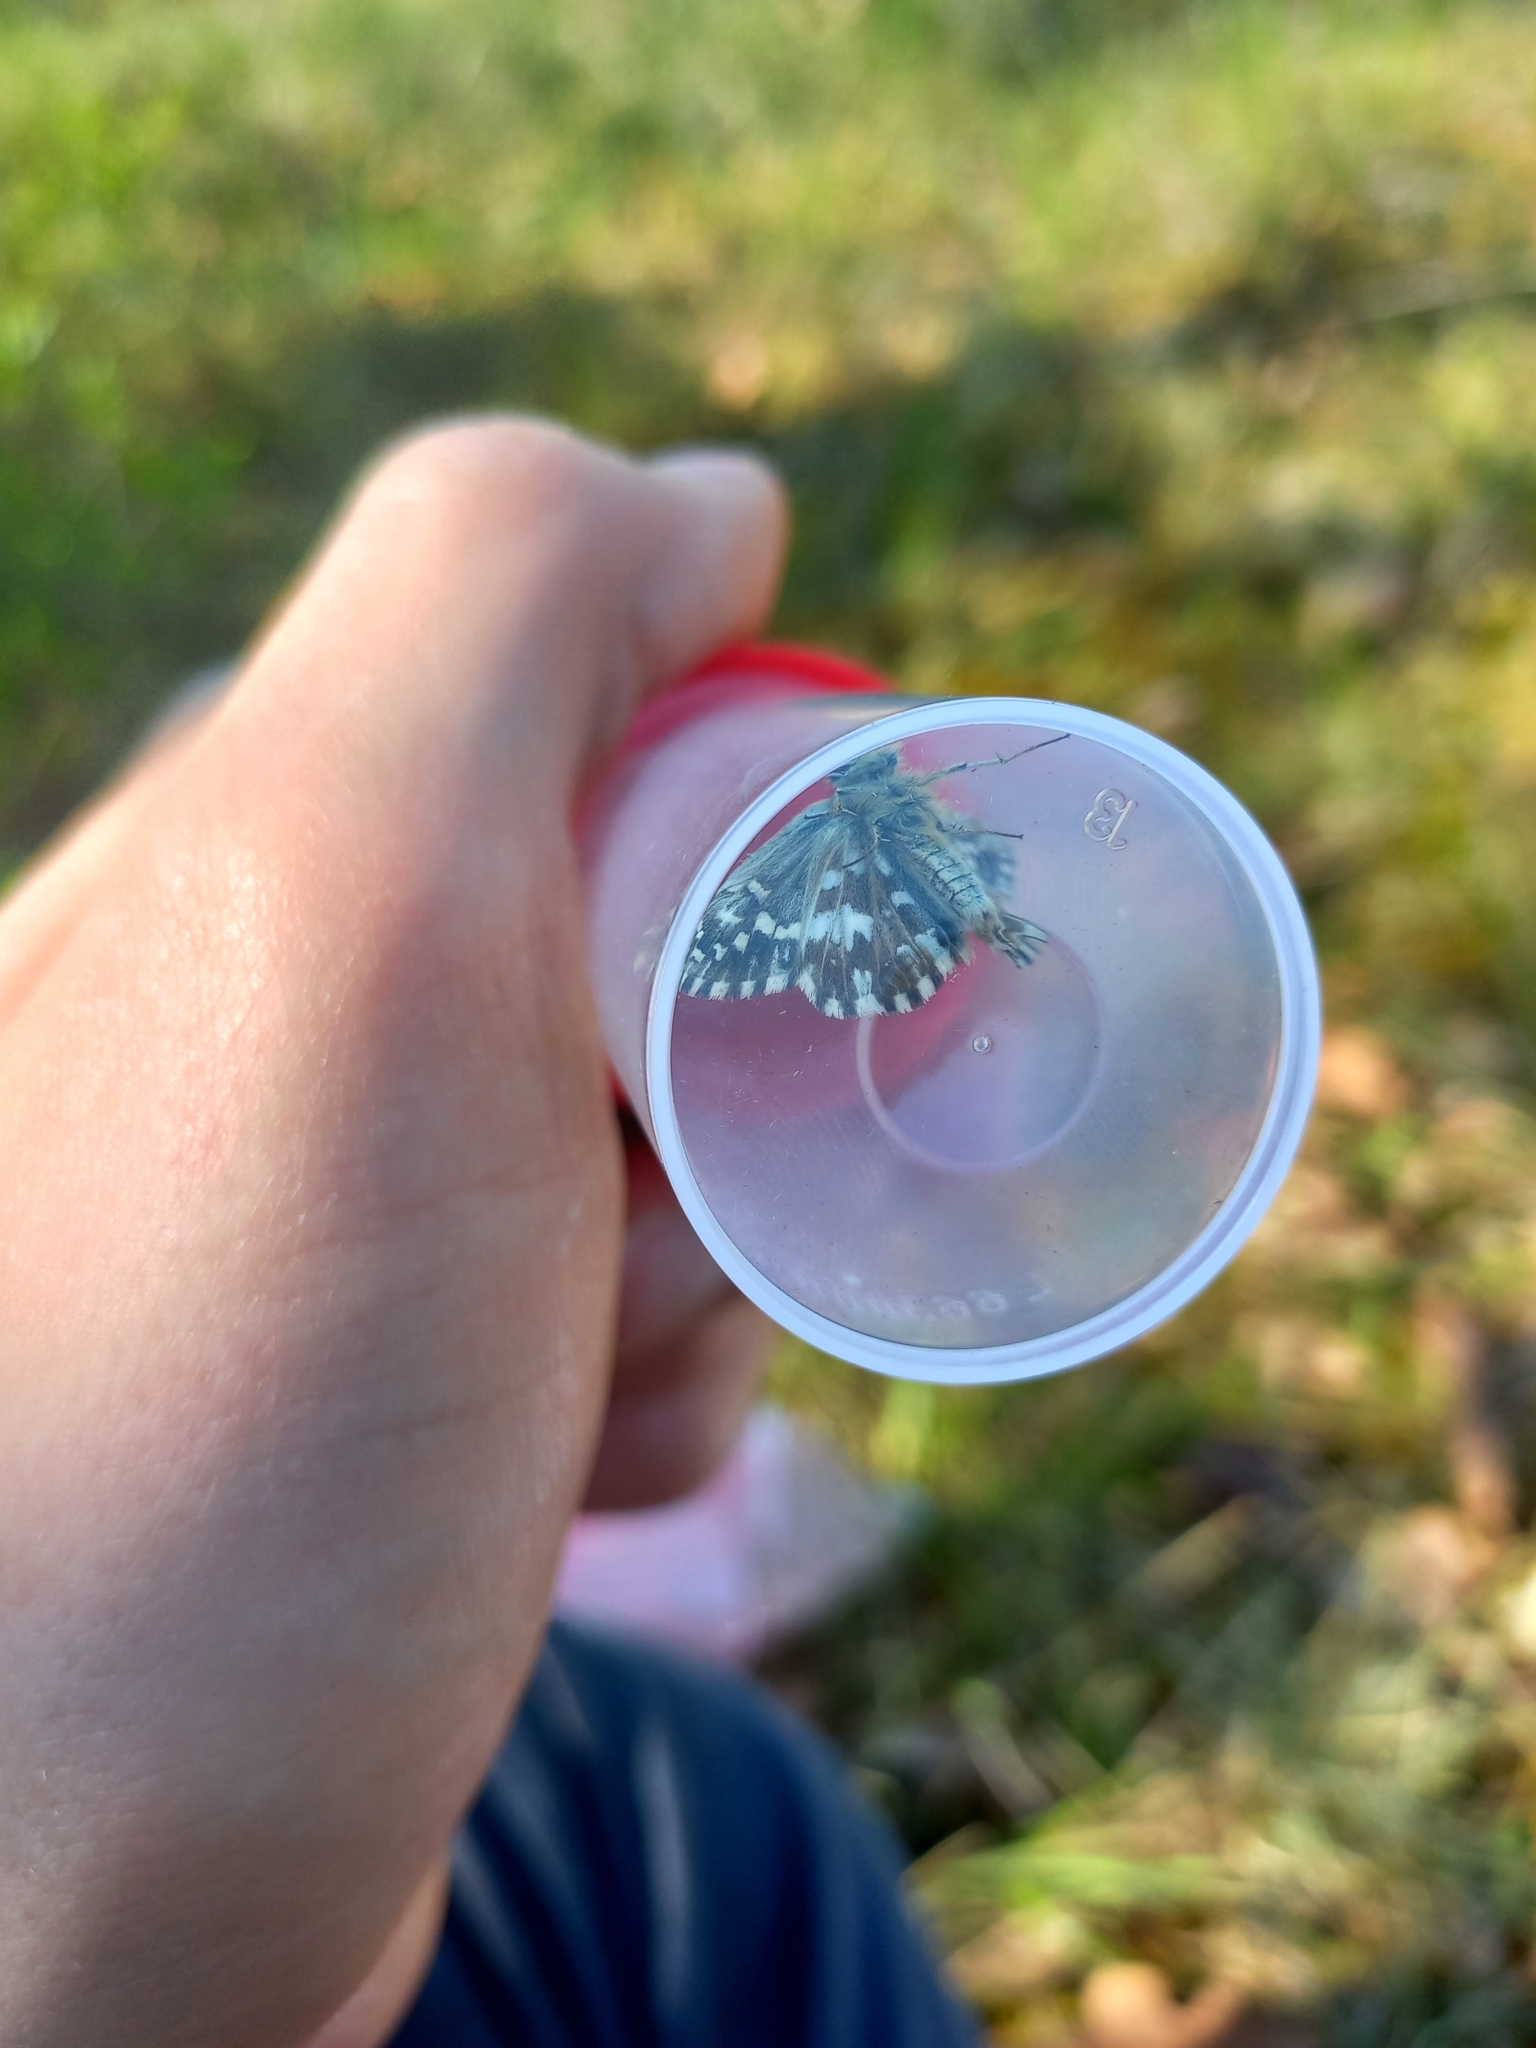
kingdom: Animalia
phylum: Arthropoda
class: Insecta
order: Lepidoptera
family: Hesperiidae
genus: Pyrgus
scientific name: Pyrgus malvae
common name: Grizzled skipper
